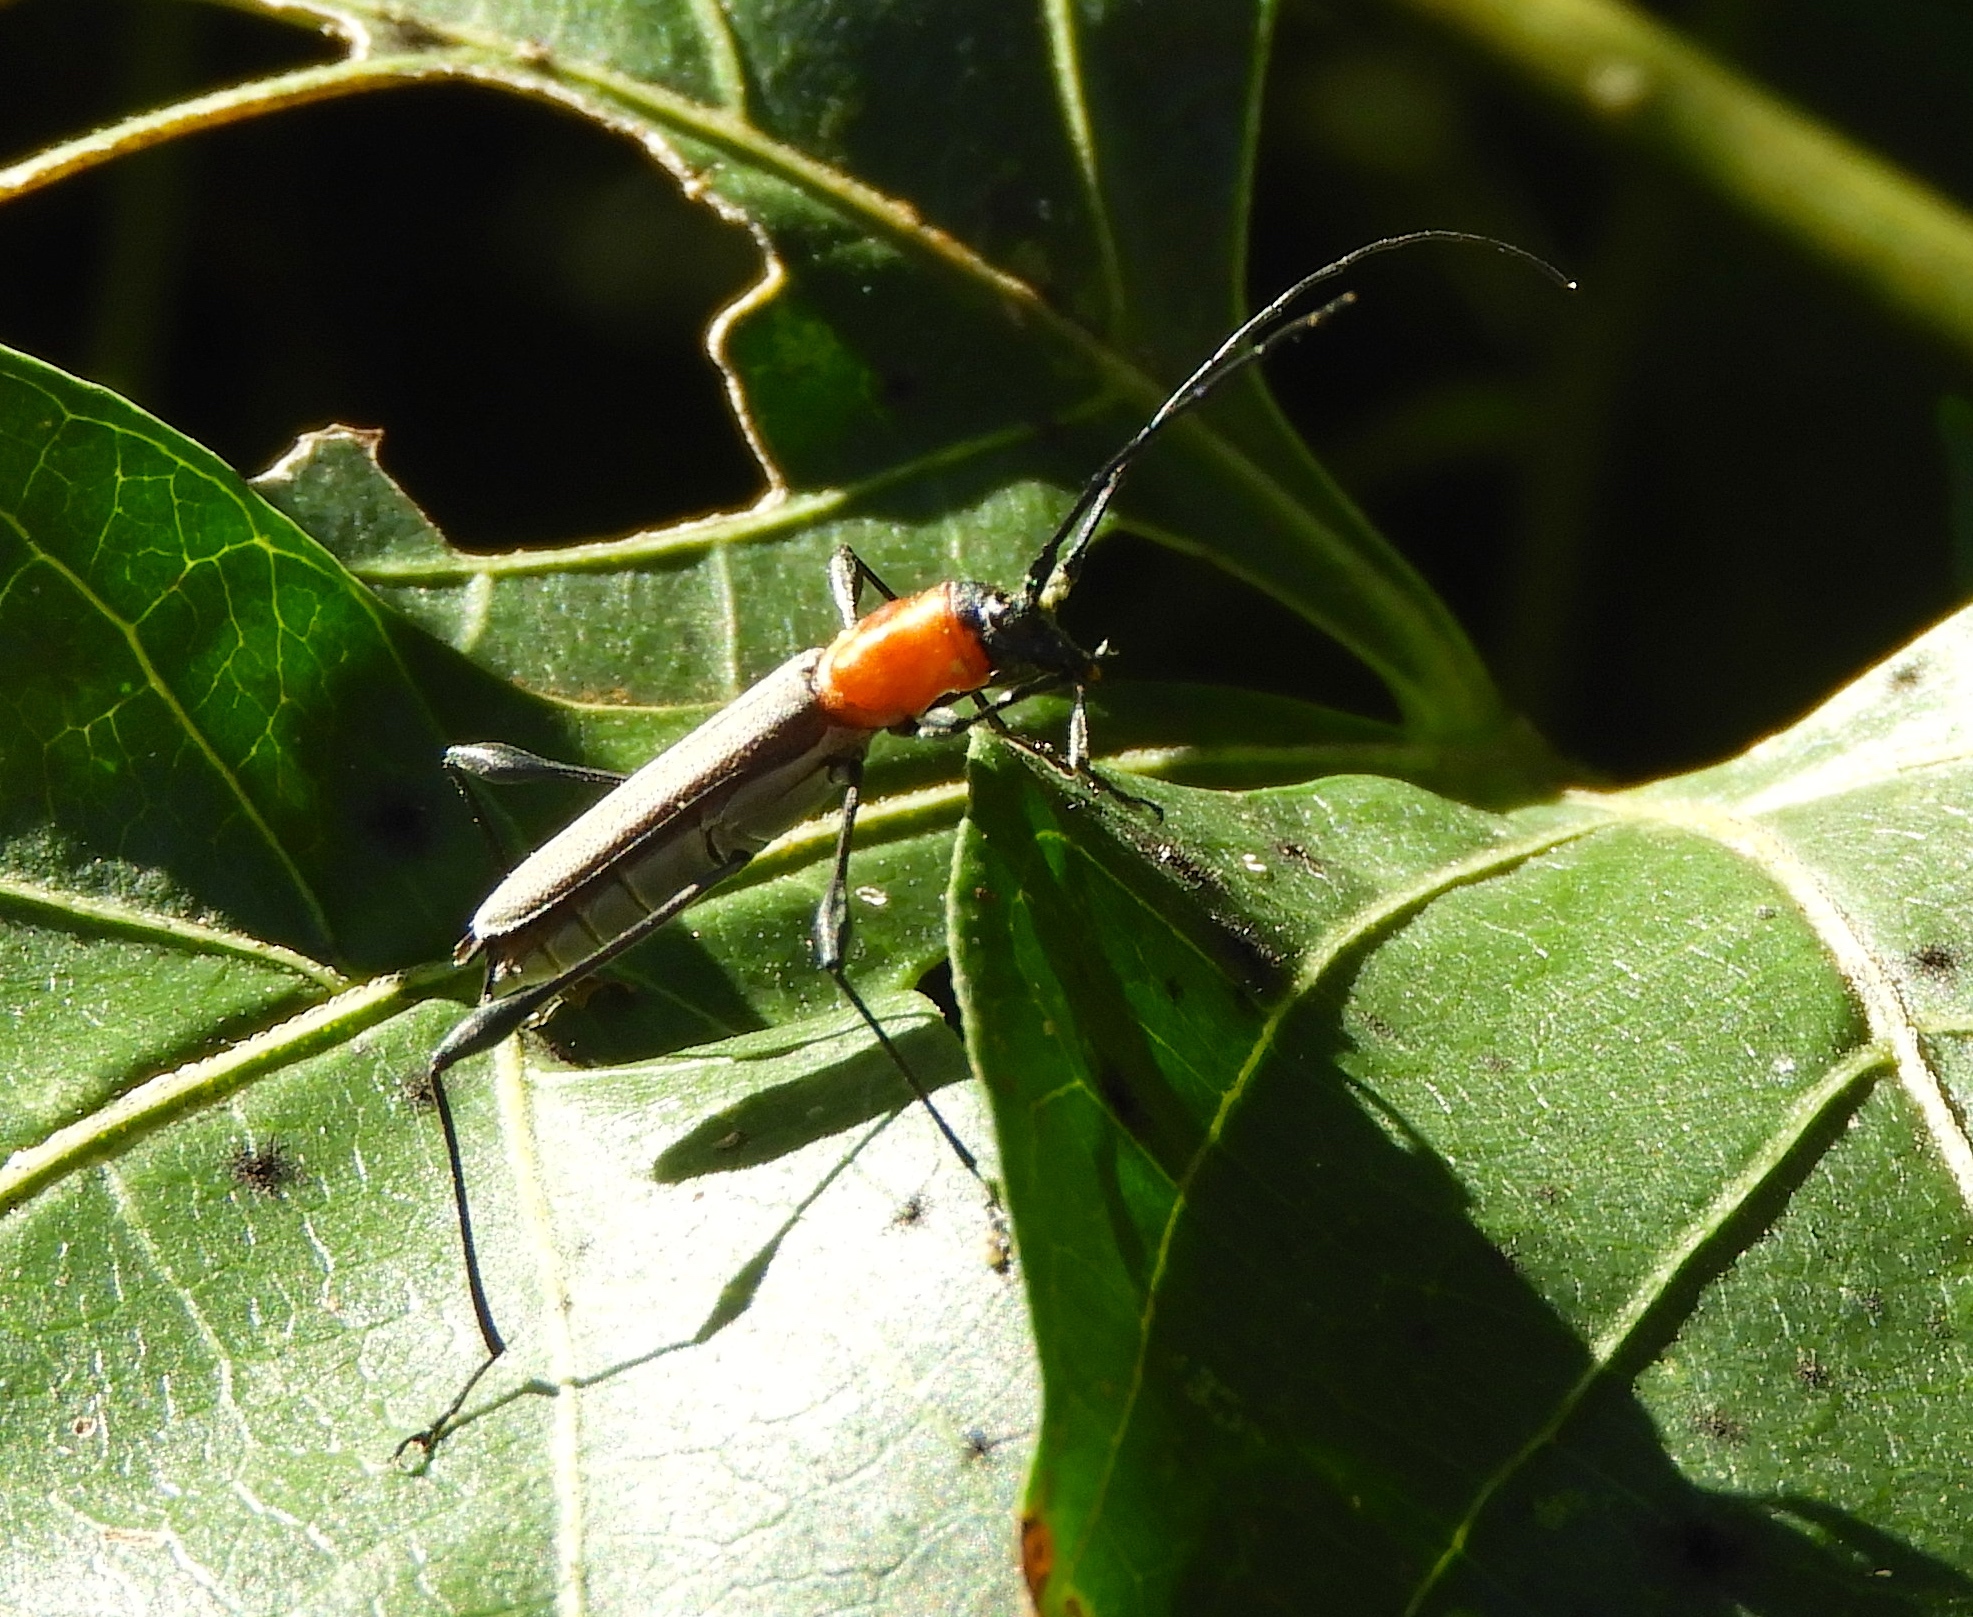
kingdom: Animalia
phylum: Arthropoda
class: Insecta
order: Coleoptera
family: Cerambycidae
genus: Rhopalophora
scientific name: Rhopalophora rugicollis
